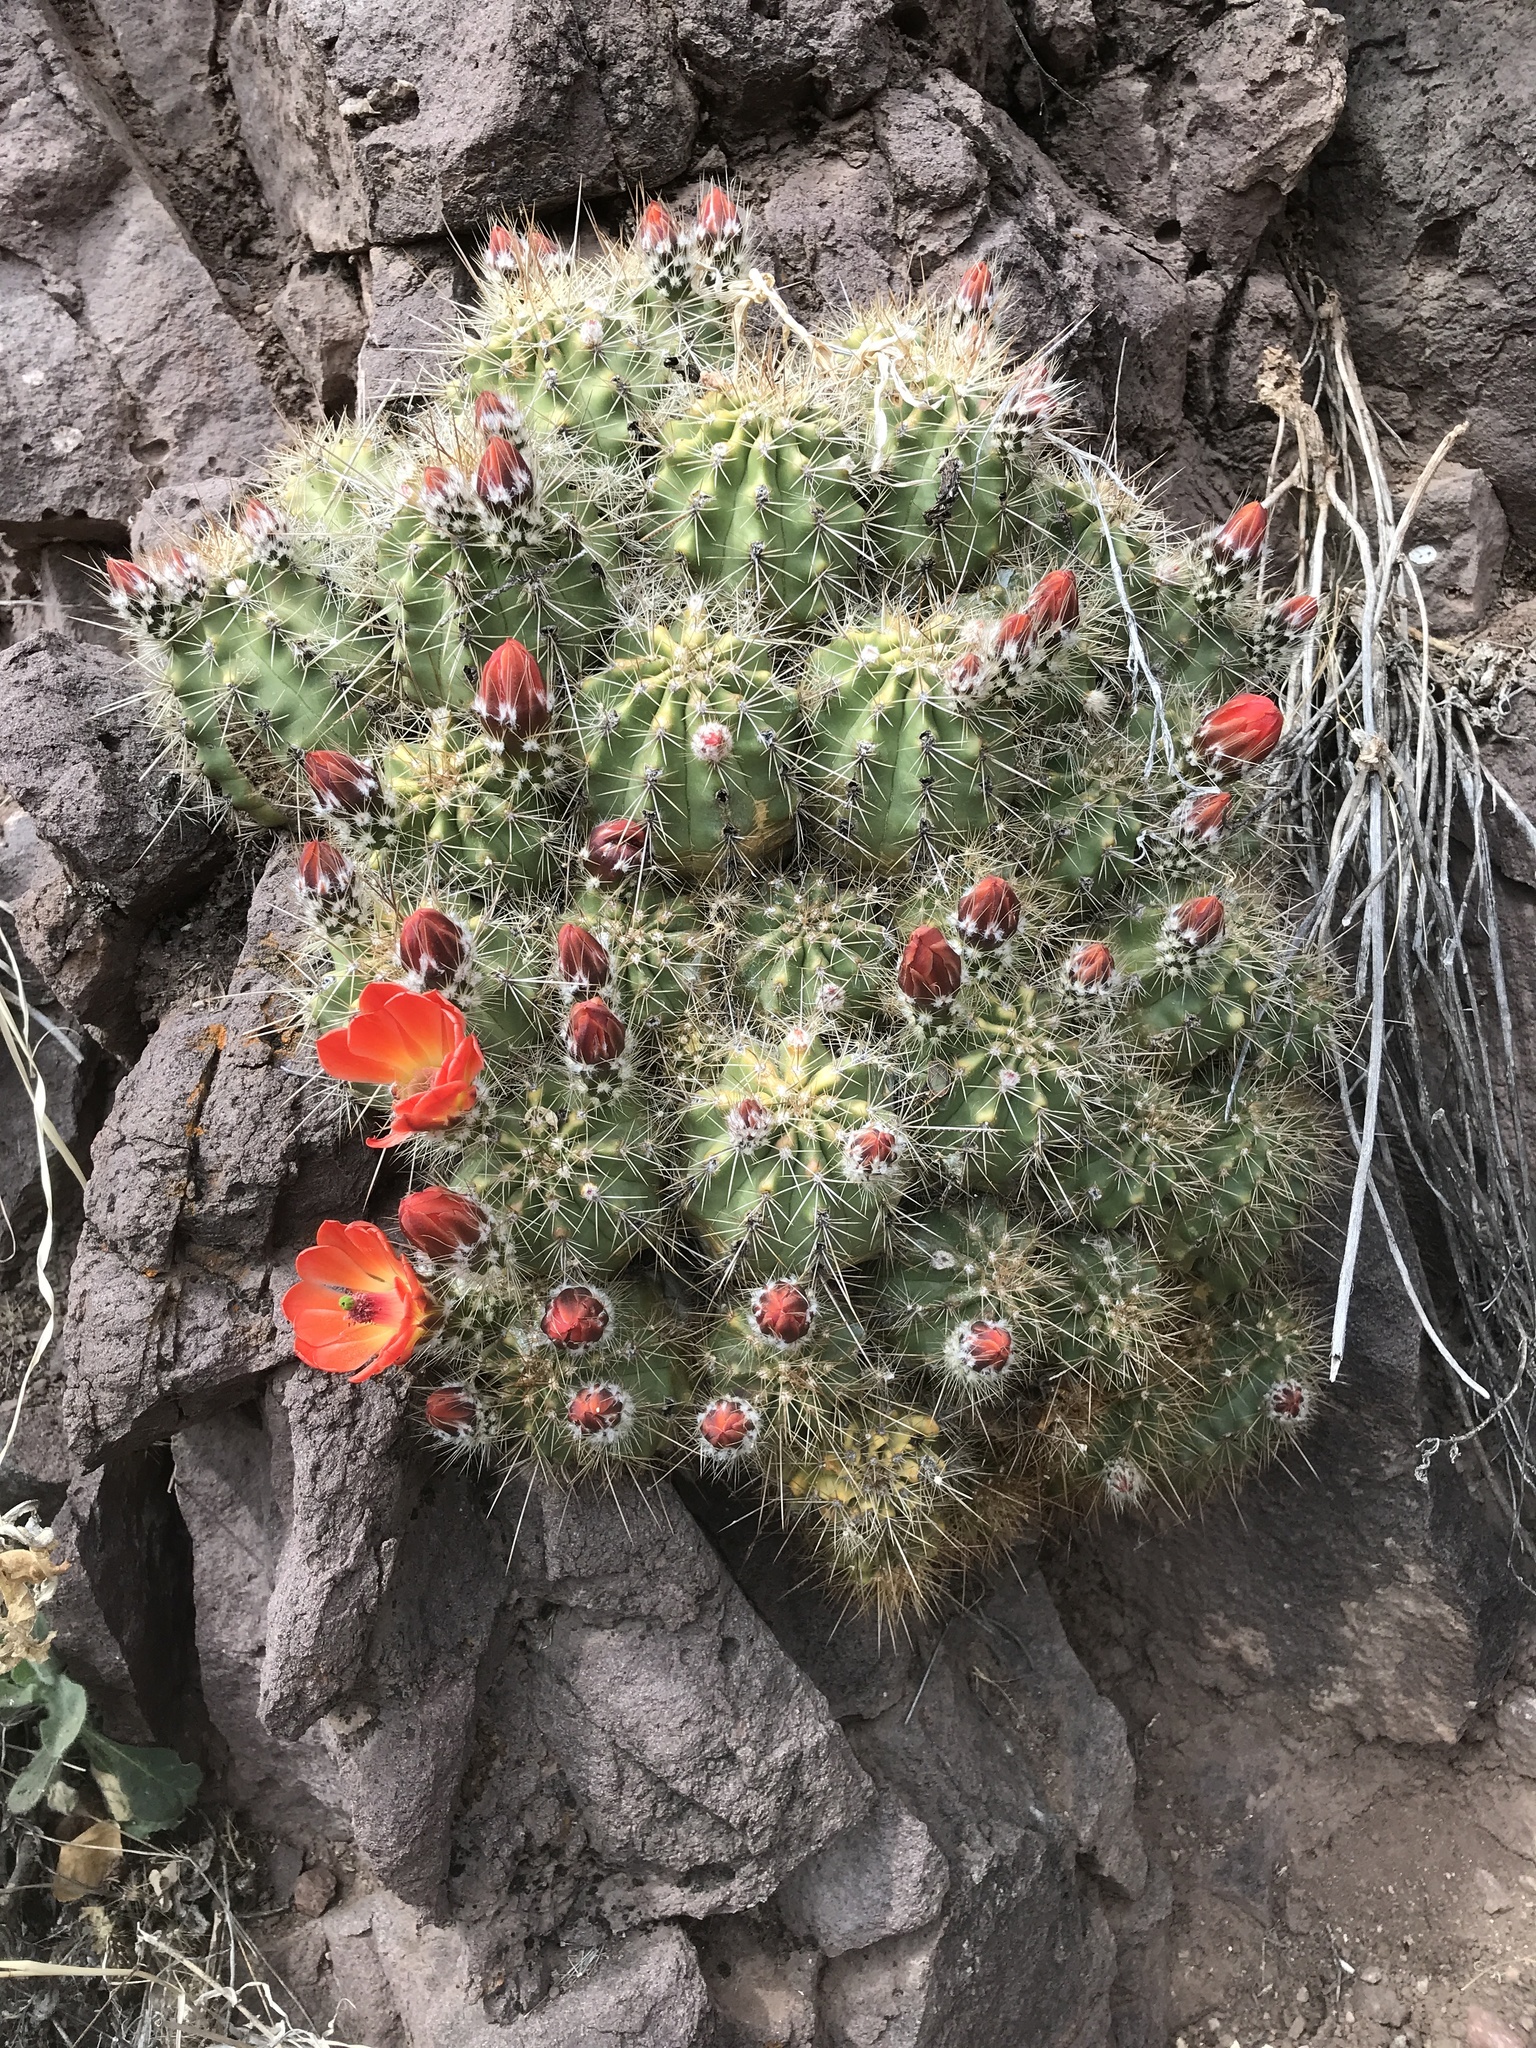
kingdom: Plantae
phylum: Tracheophyta
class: Magnoliopsida
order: Caryophyllales
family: Cactaceae
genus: Echinocereus
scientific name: Echinocereus coccineus
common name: Scarlet hedgehog cactus
